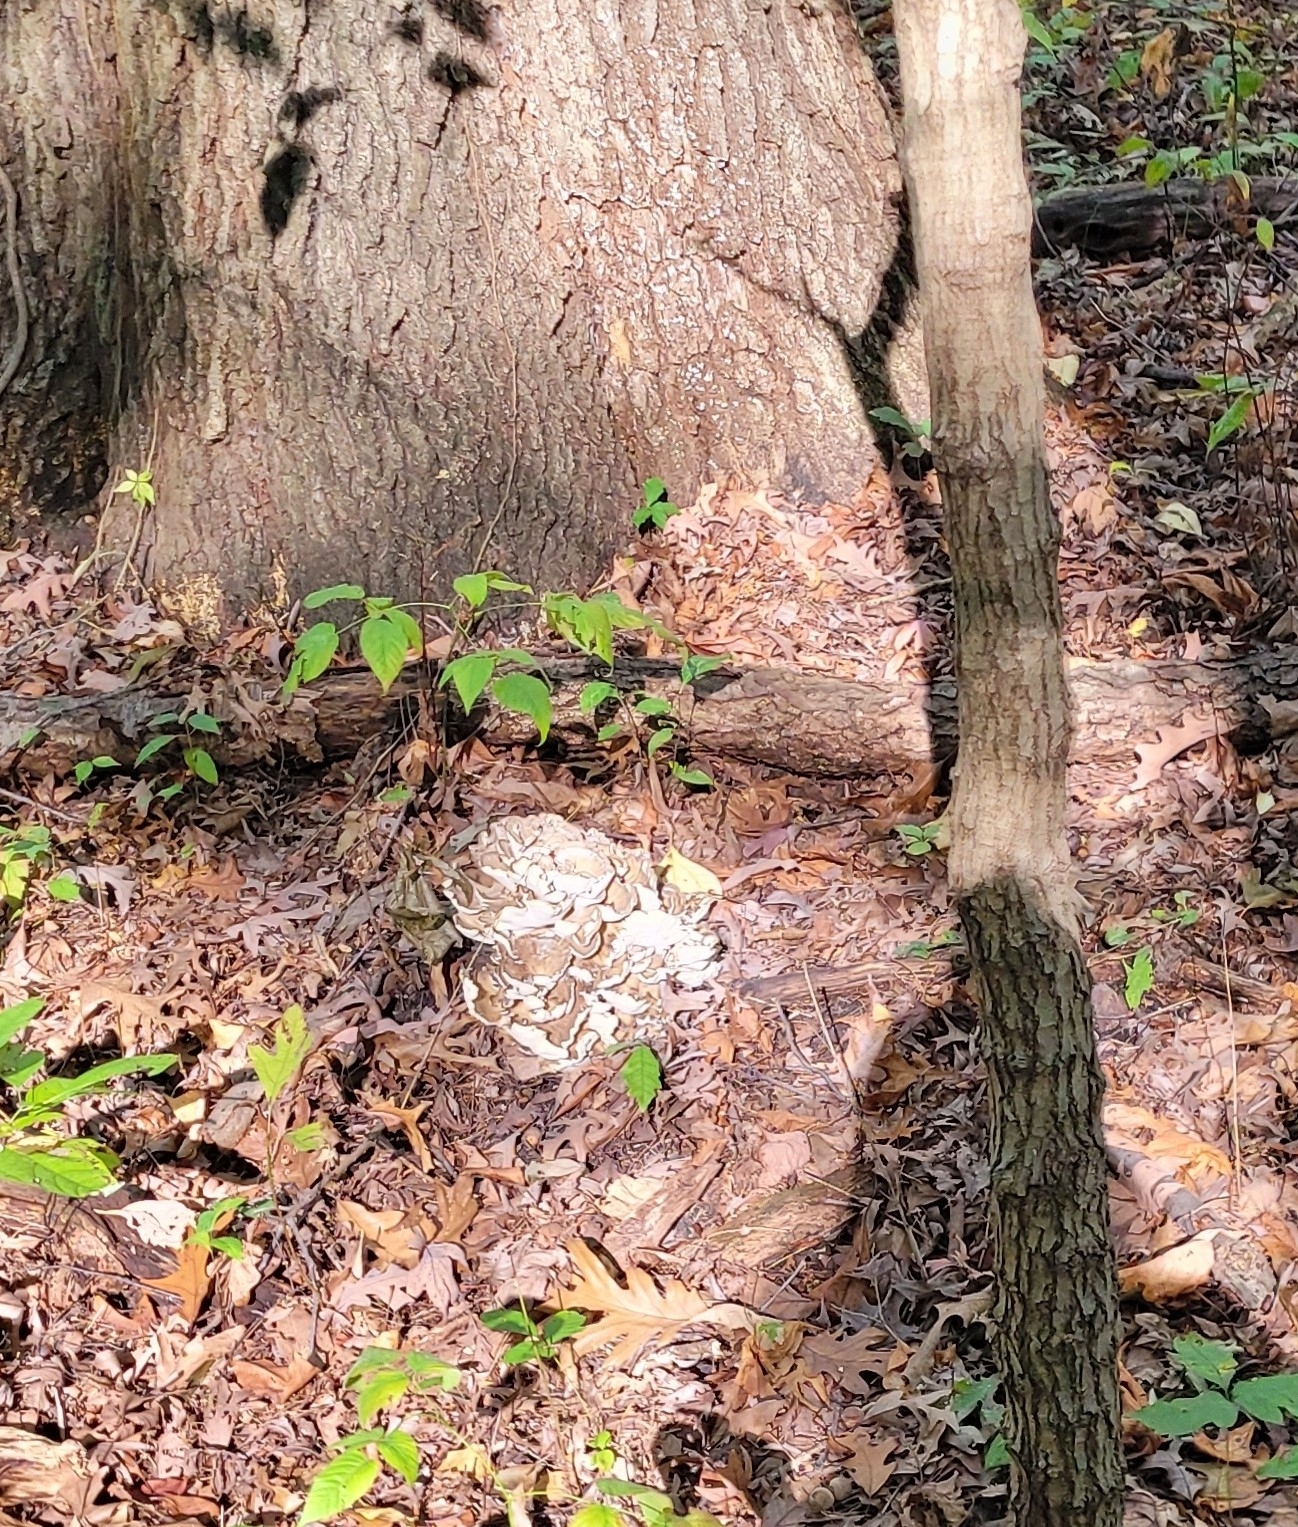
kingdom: Fungi
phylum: Basidiomycota
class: Agaricomycetes
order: Polyporales
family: Grifolaceae
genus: Grifola
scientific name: Grifola frondosa
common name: Hen of the woods
